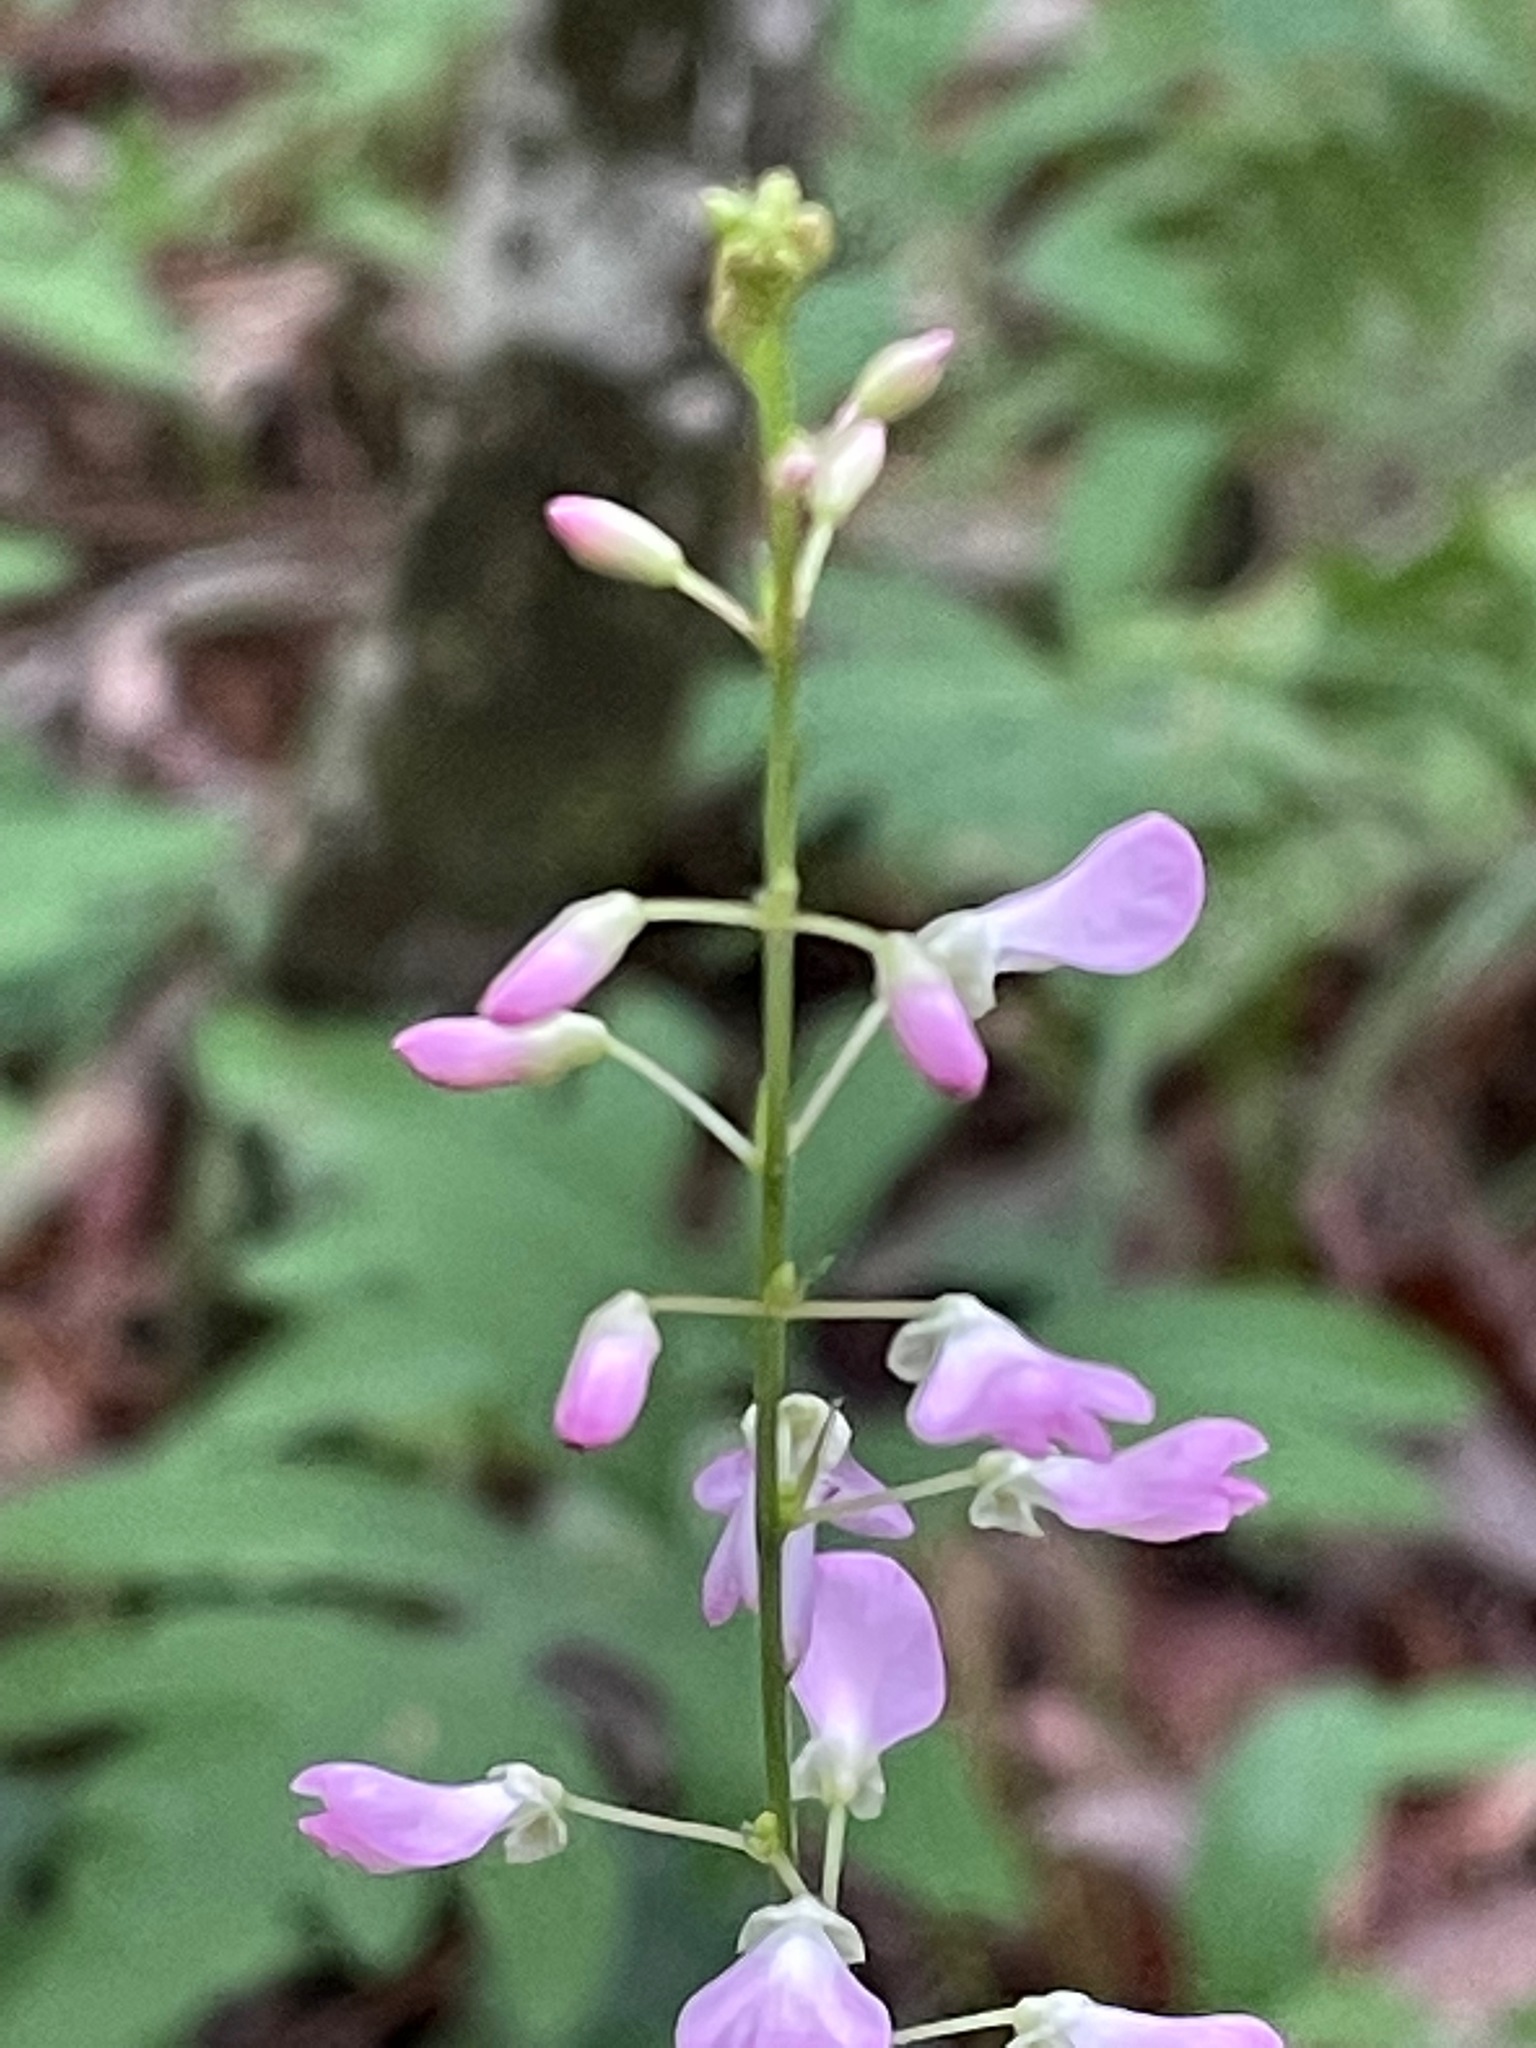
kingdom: Plantae
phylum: Tracheophyta
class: Magnoliopsida
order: Fabales
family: Fabaceae
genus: Hylodesmum
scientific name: Hylodesmum glutinosum
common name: Clustered-leaved tick-trefoil
